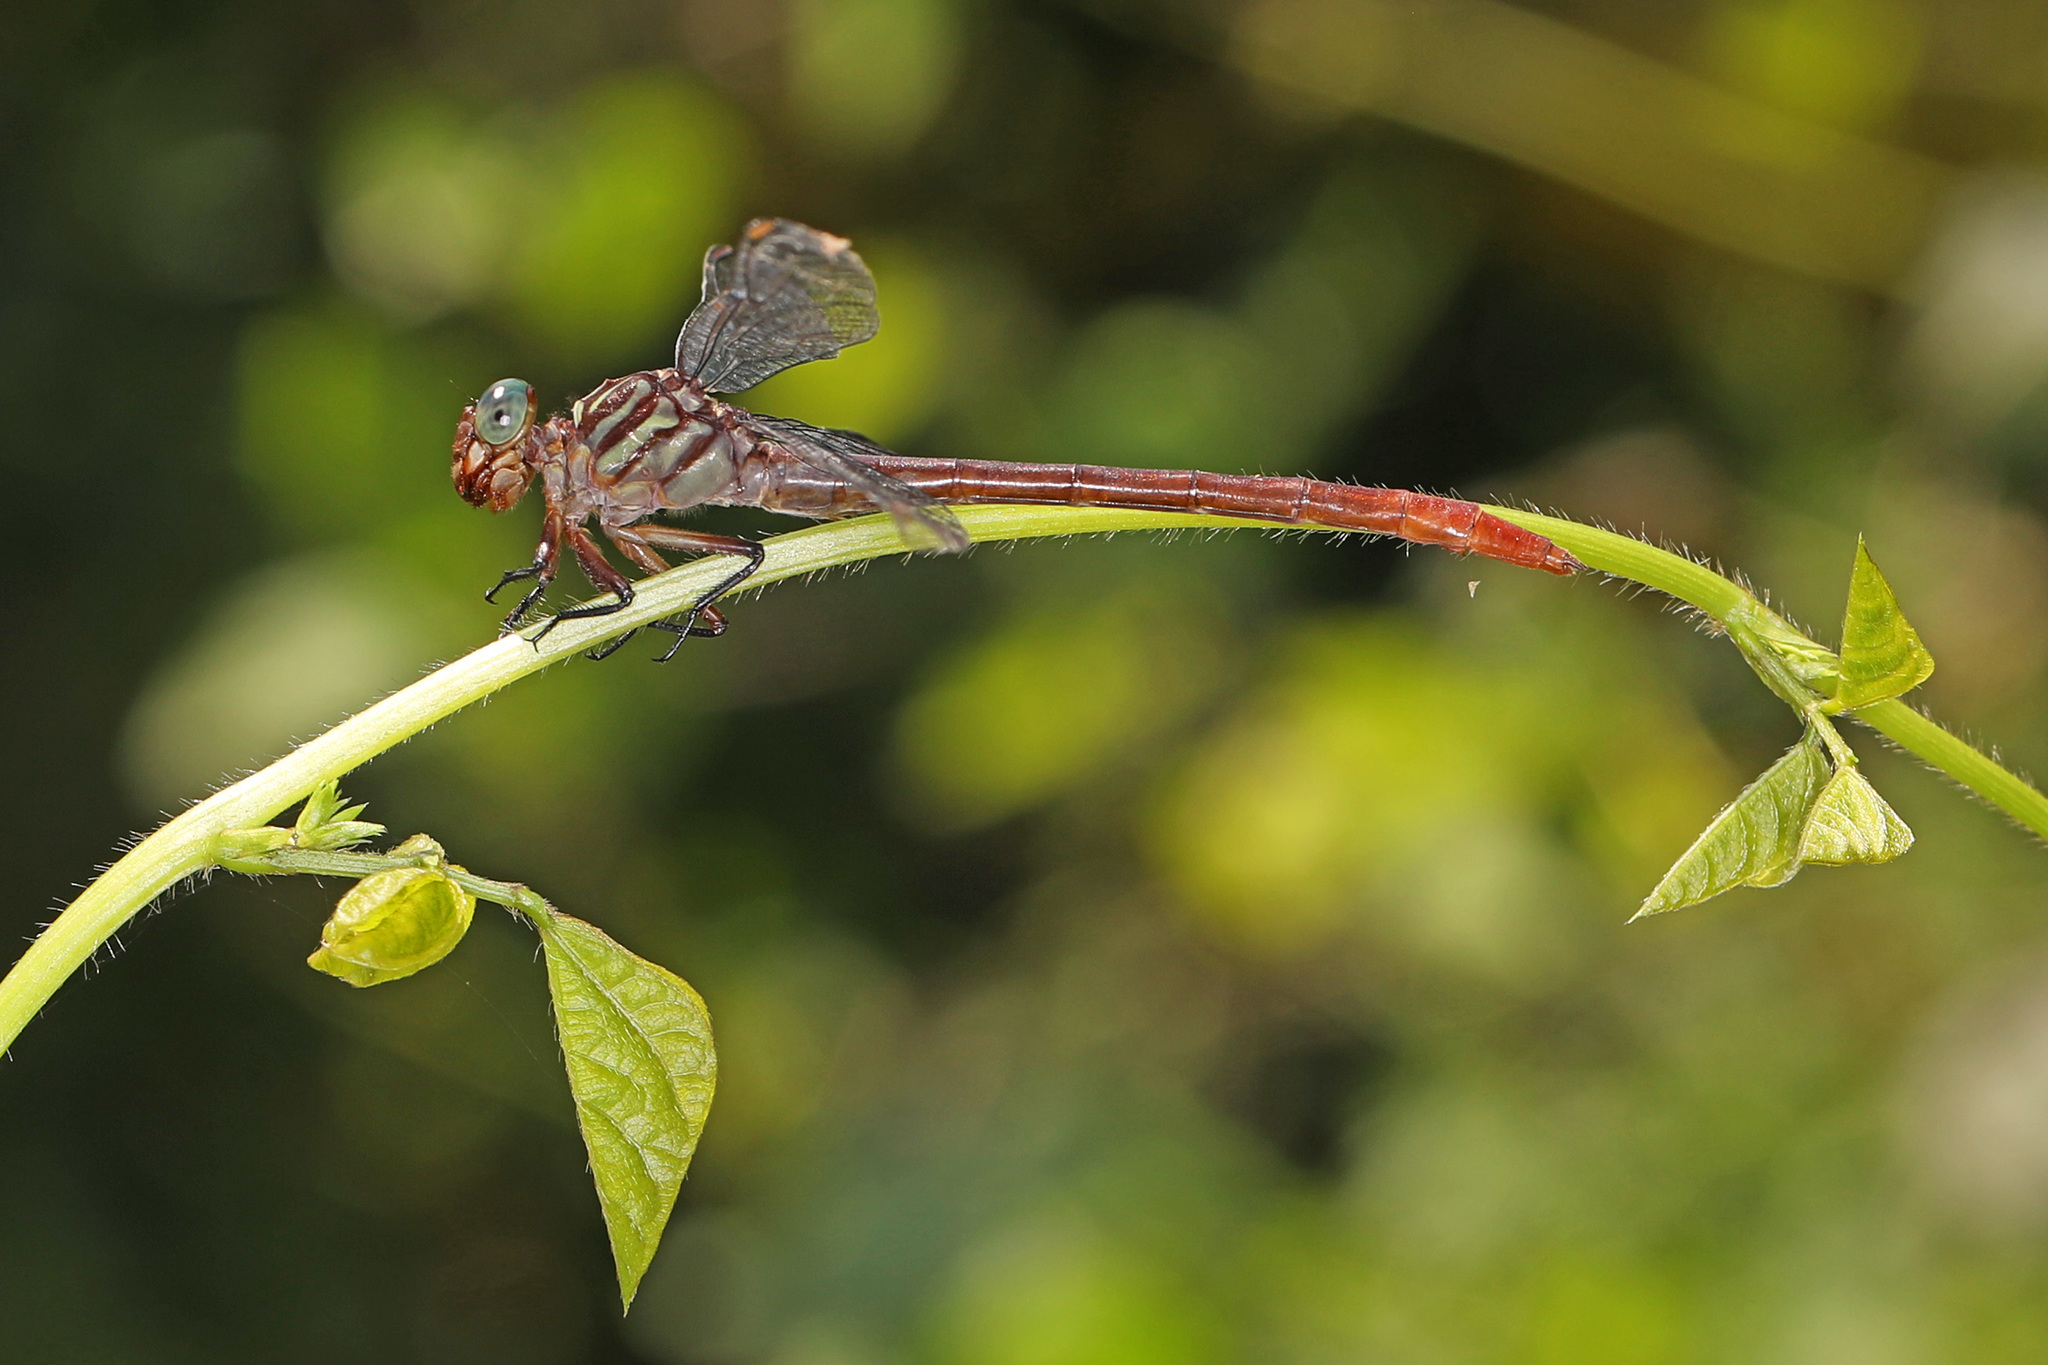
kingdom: Animalia
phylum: Arthropoda
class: Insecta
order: Odonata
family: Gomphidae
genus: Stylurus
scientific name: Stylurus plagiatus
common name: Russet-tipped clubtail
